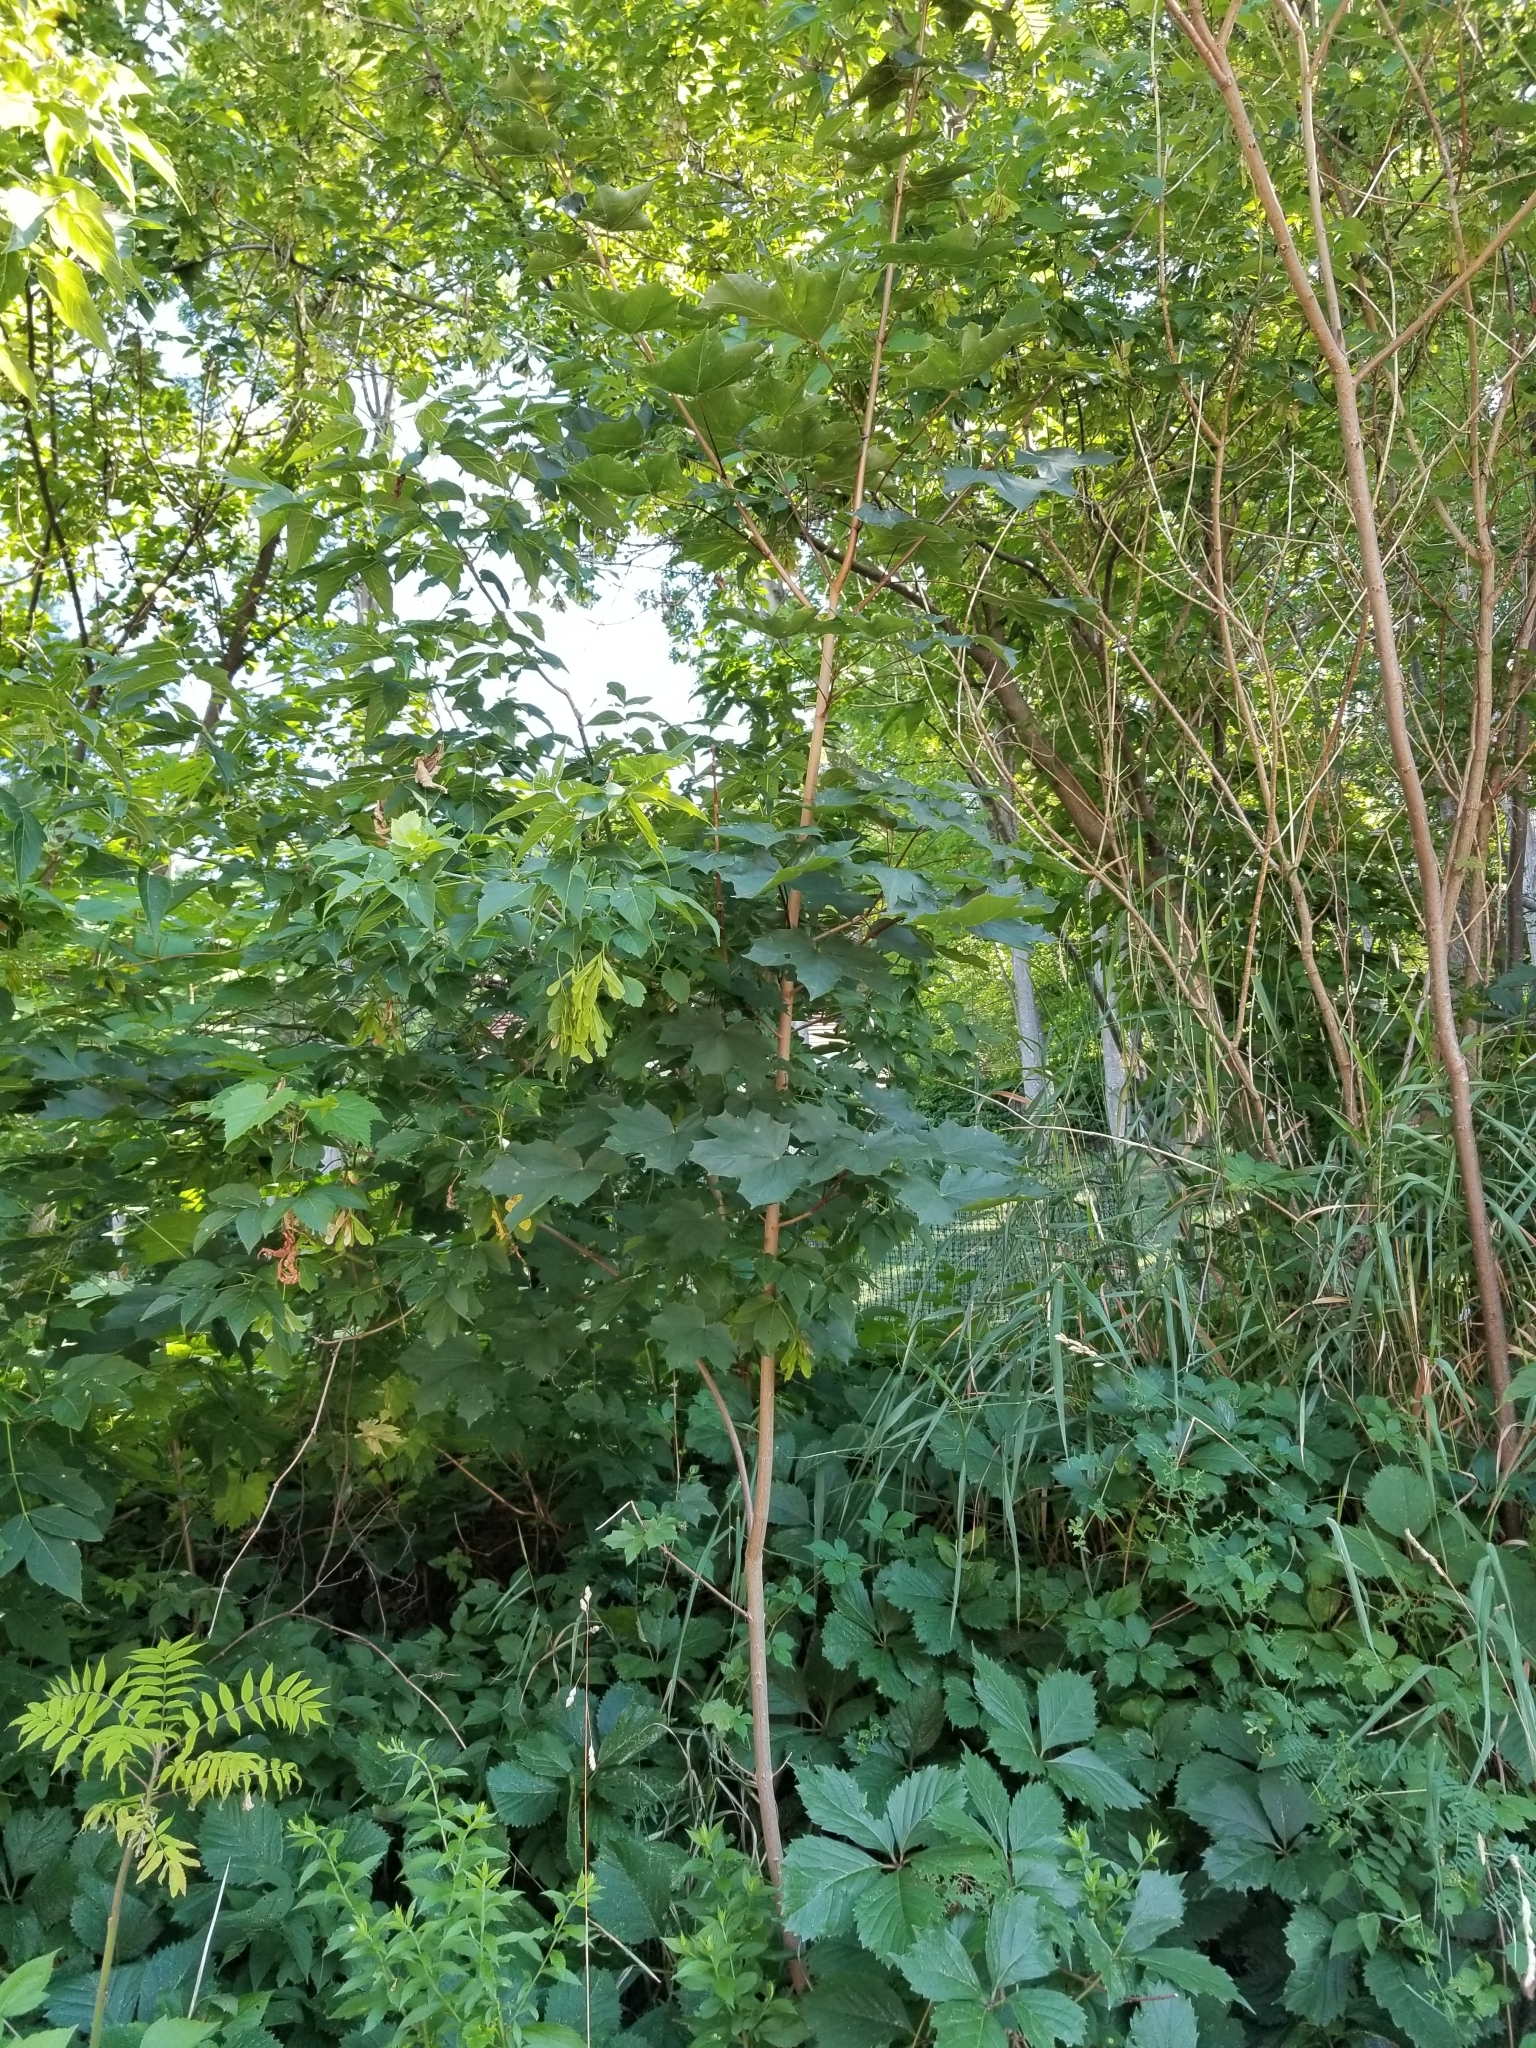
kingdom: Plantae
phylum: Tracheophyta
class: Magnoliopsida
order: Sapindales
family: Sapindaceae
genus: Acer
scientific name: Acer platanoides
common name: Norway maple
